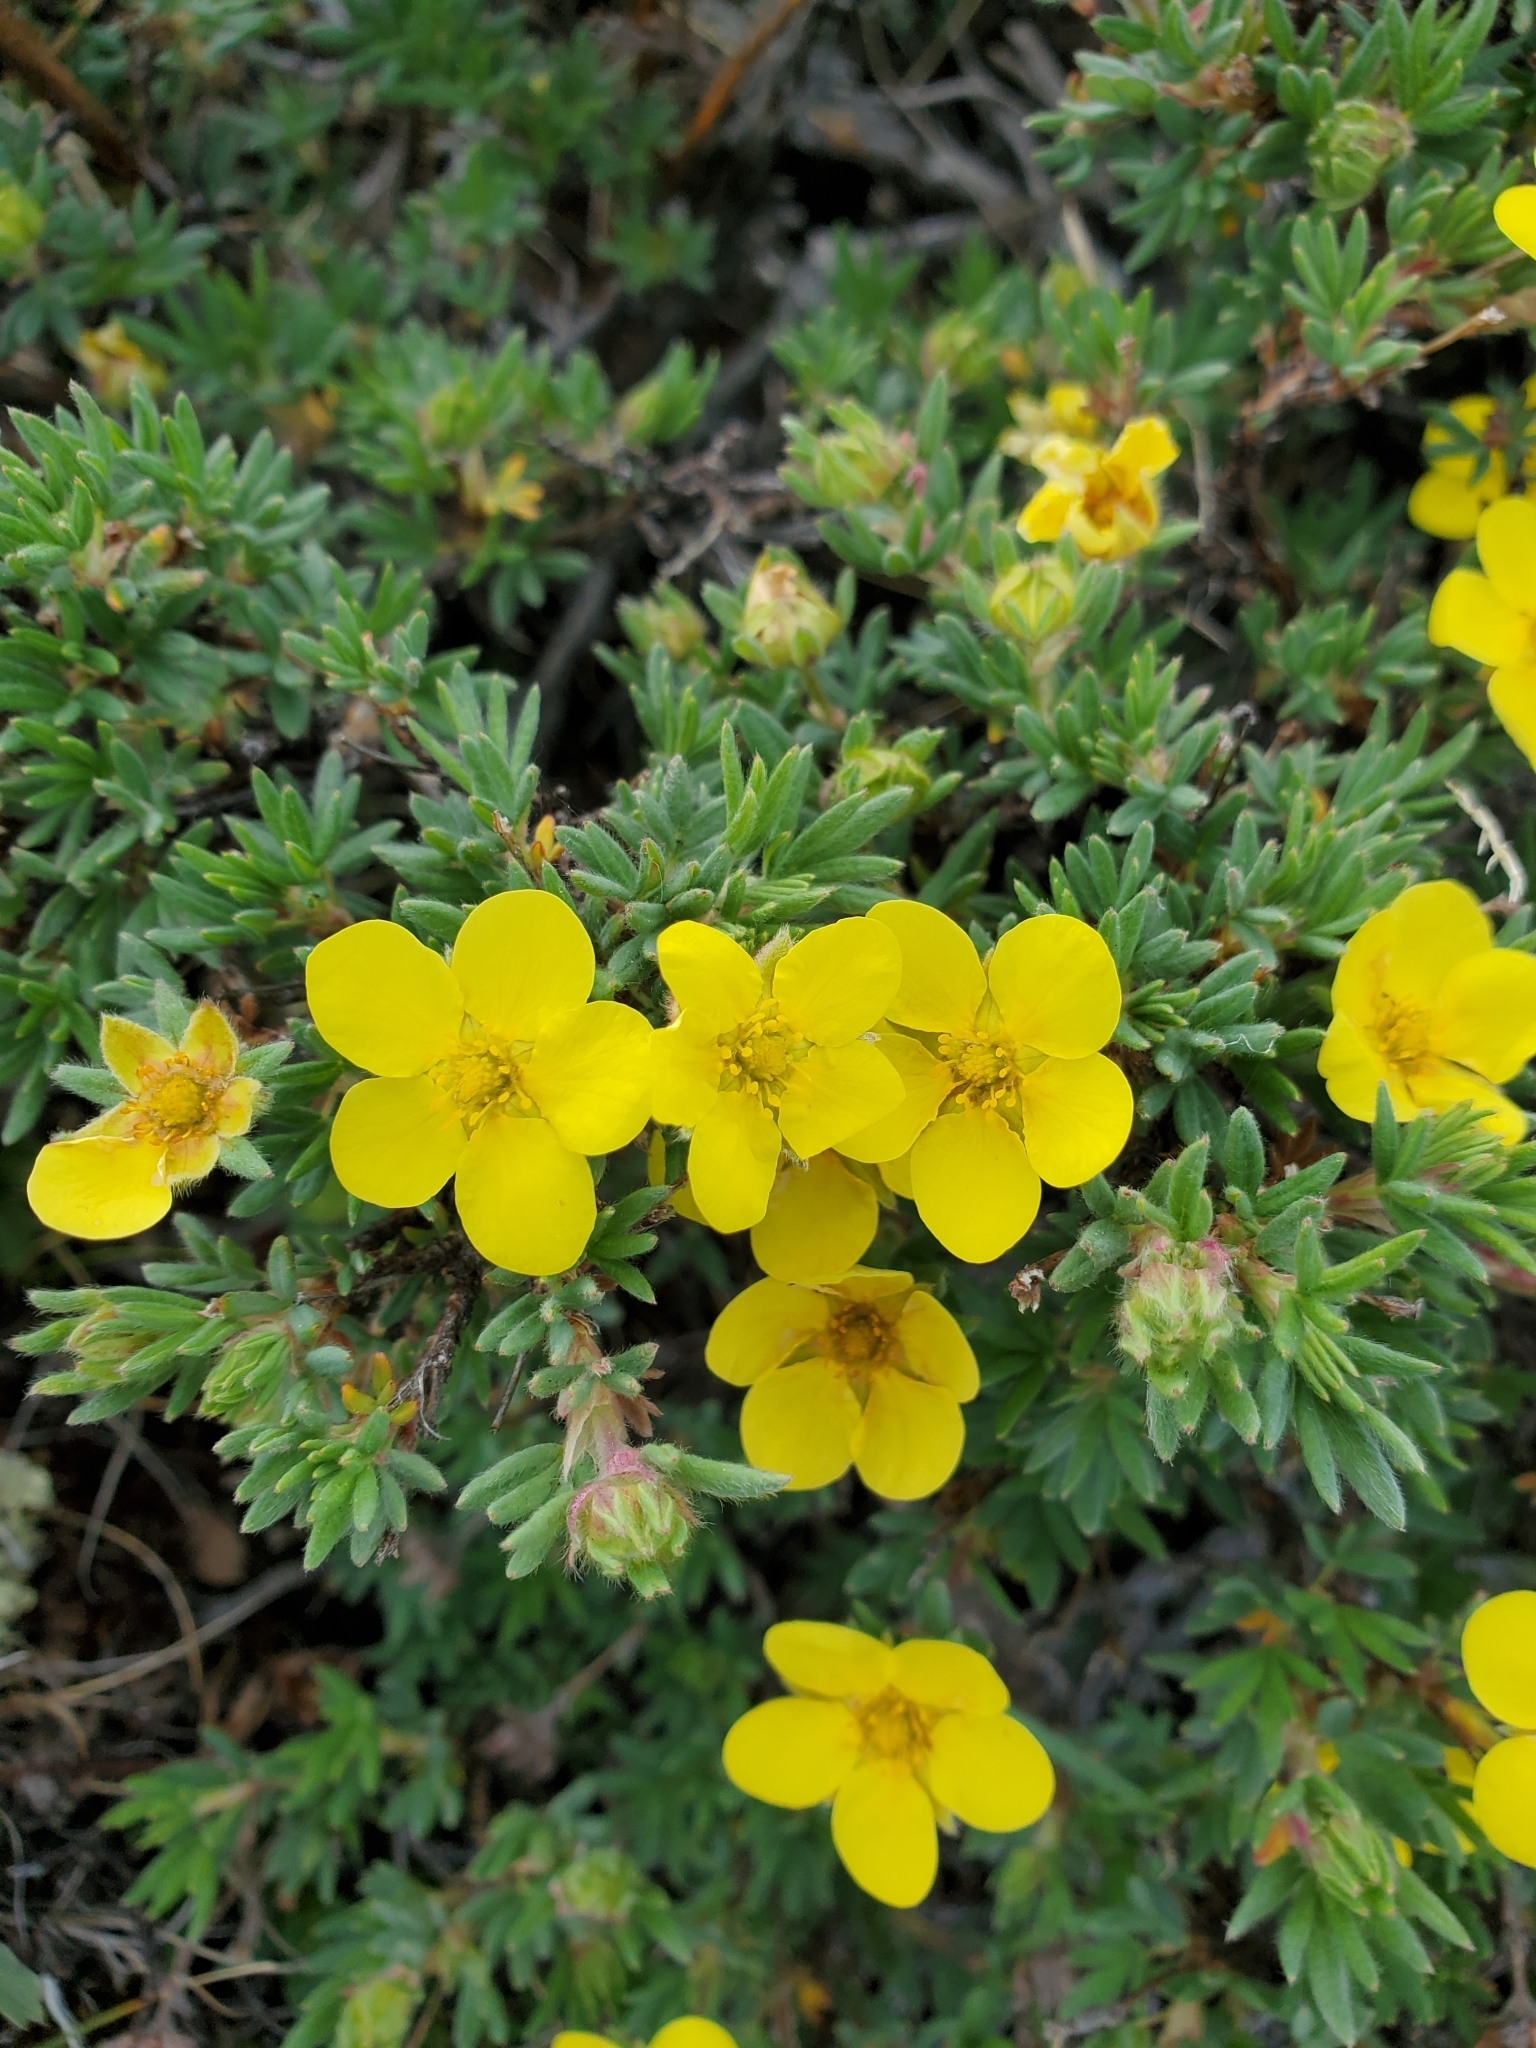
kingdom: Plantae
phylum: Tracheophyta
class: Magnoliopsida
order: Rosales
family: Rosaceae
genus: Dasiphora
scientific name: Dasiphora fruticosa
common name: Shrubby cinquefoil
